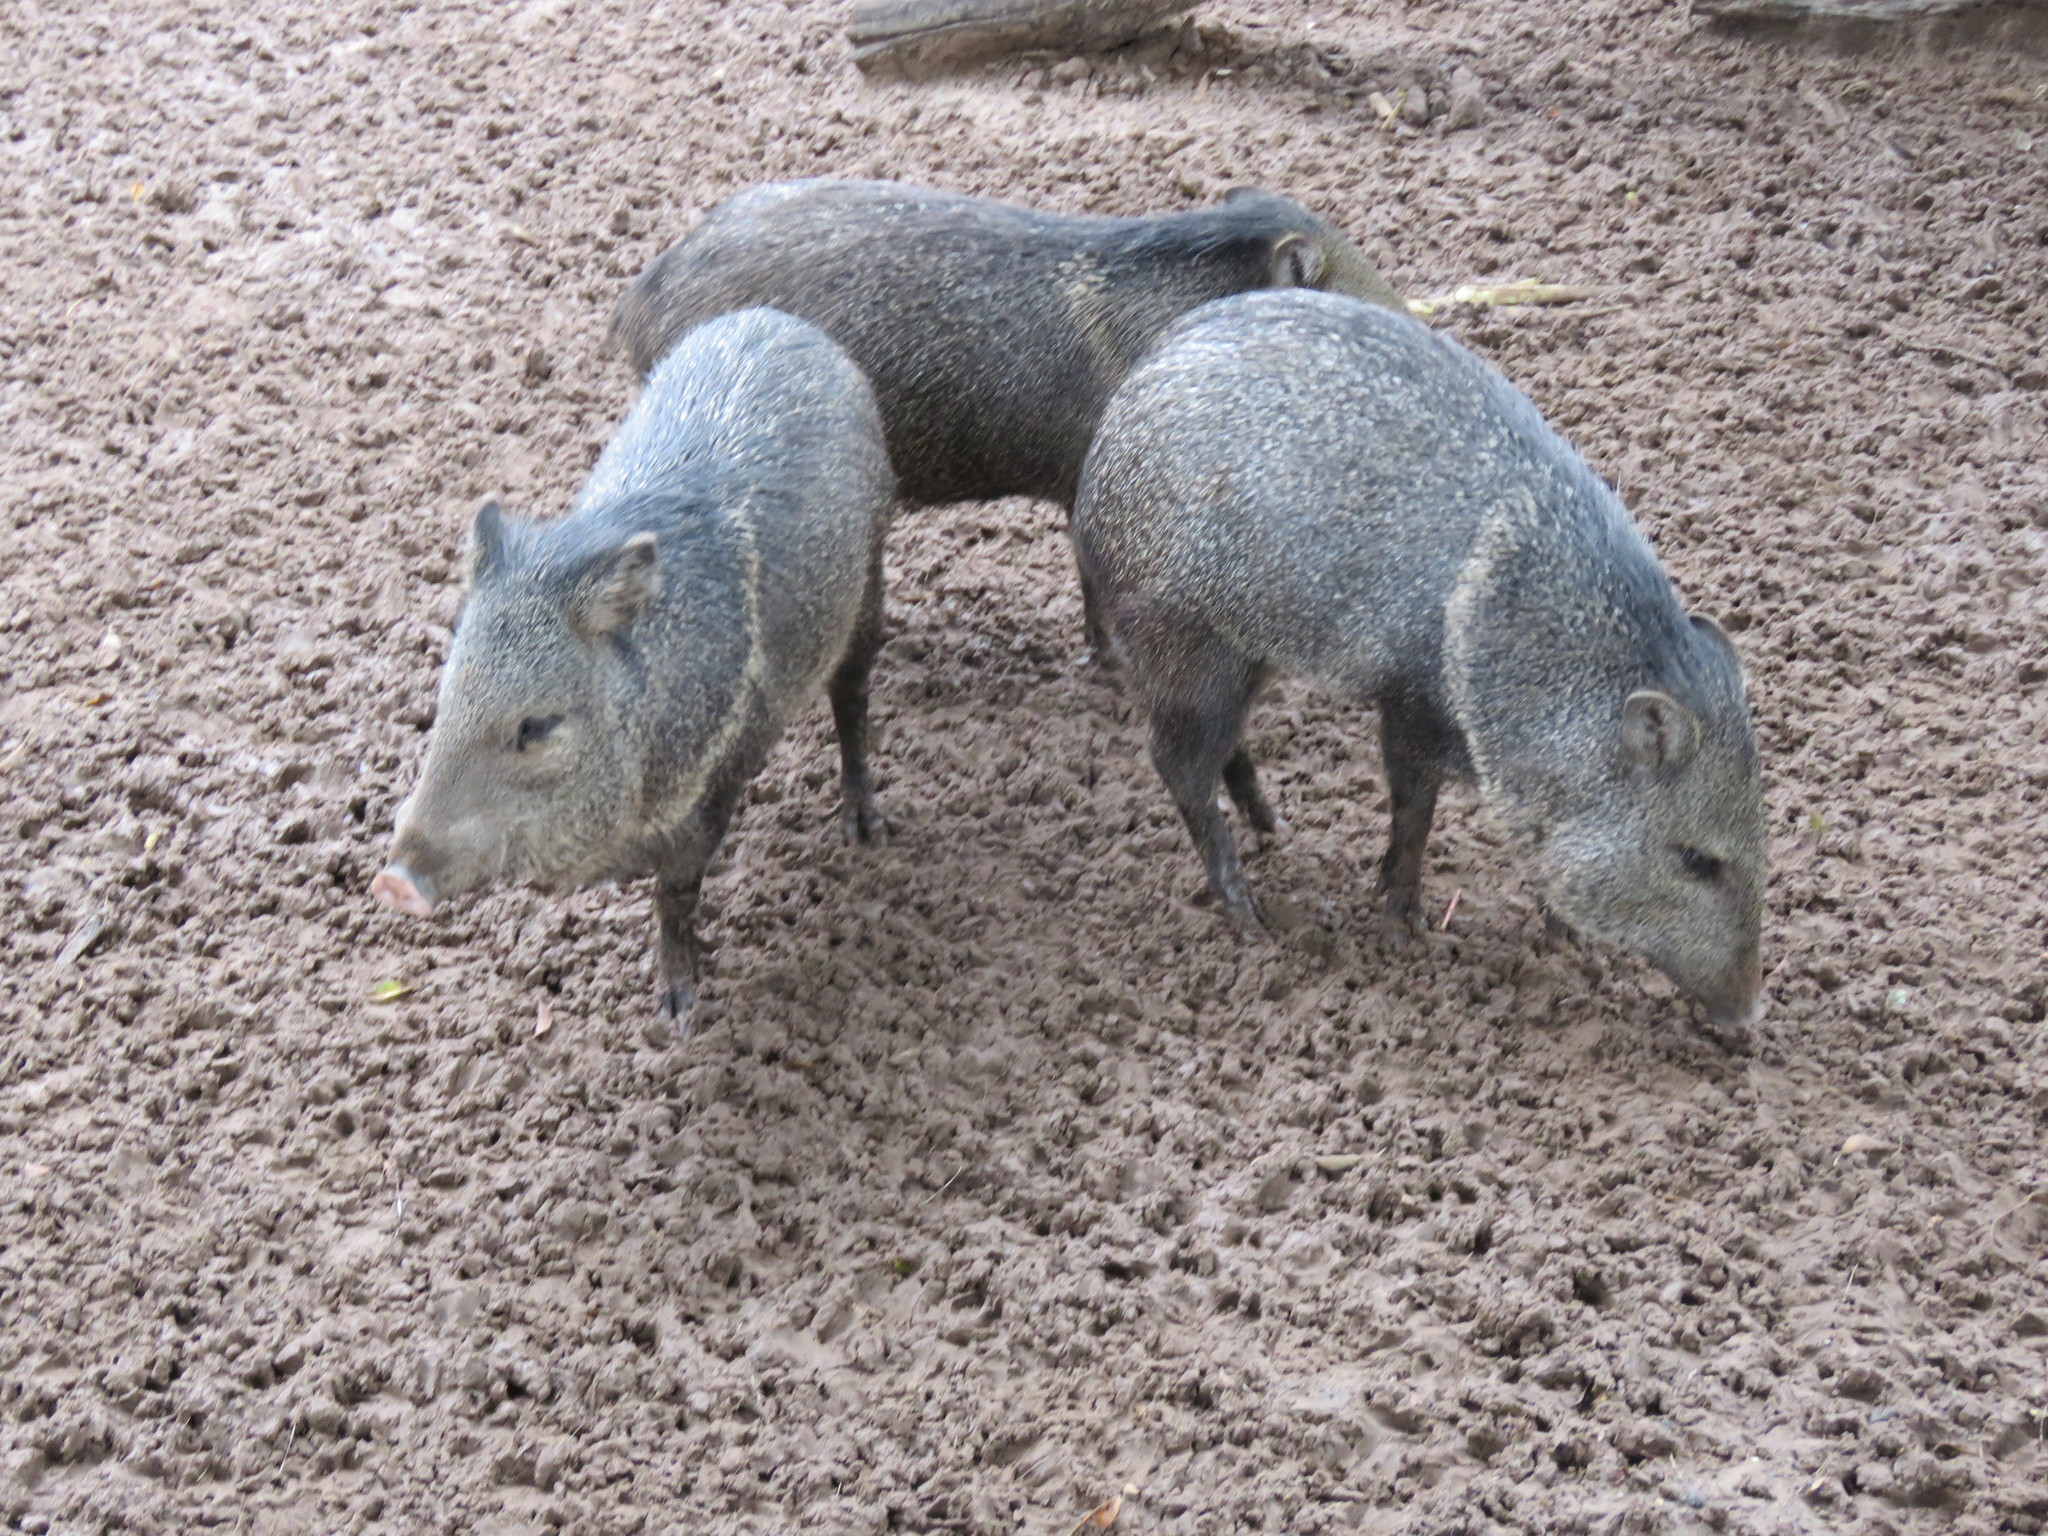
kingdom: Animalia
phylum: Chordata
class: Mammalia
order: Artiodactyla
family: Tayassuidae
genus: Pecari
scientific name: Pecari tajacu
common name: Collared peccary
